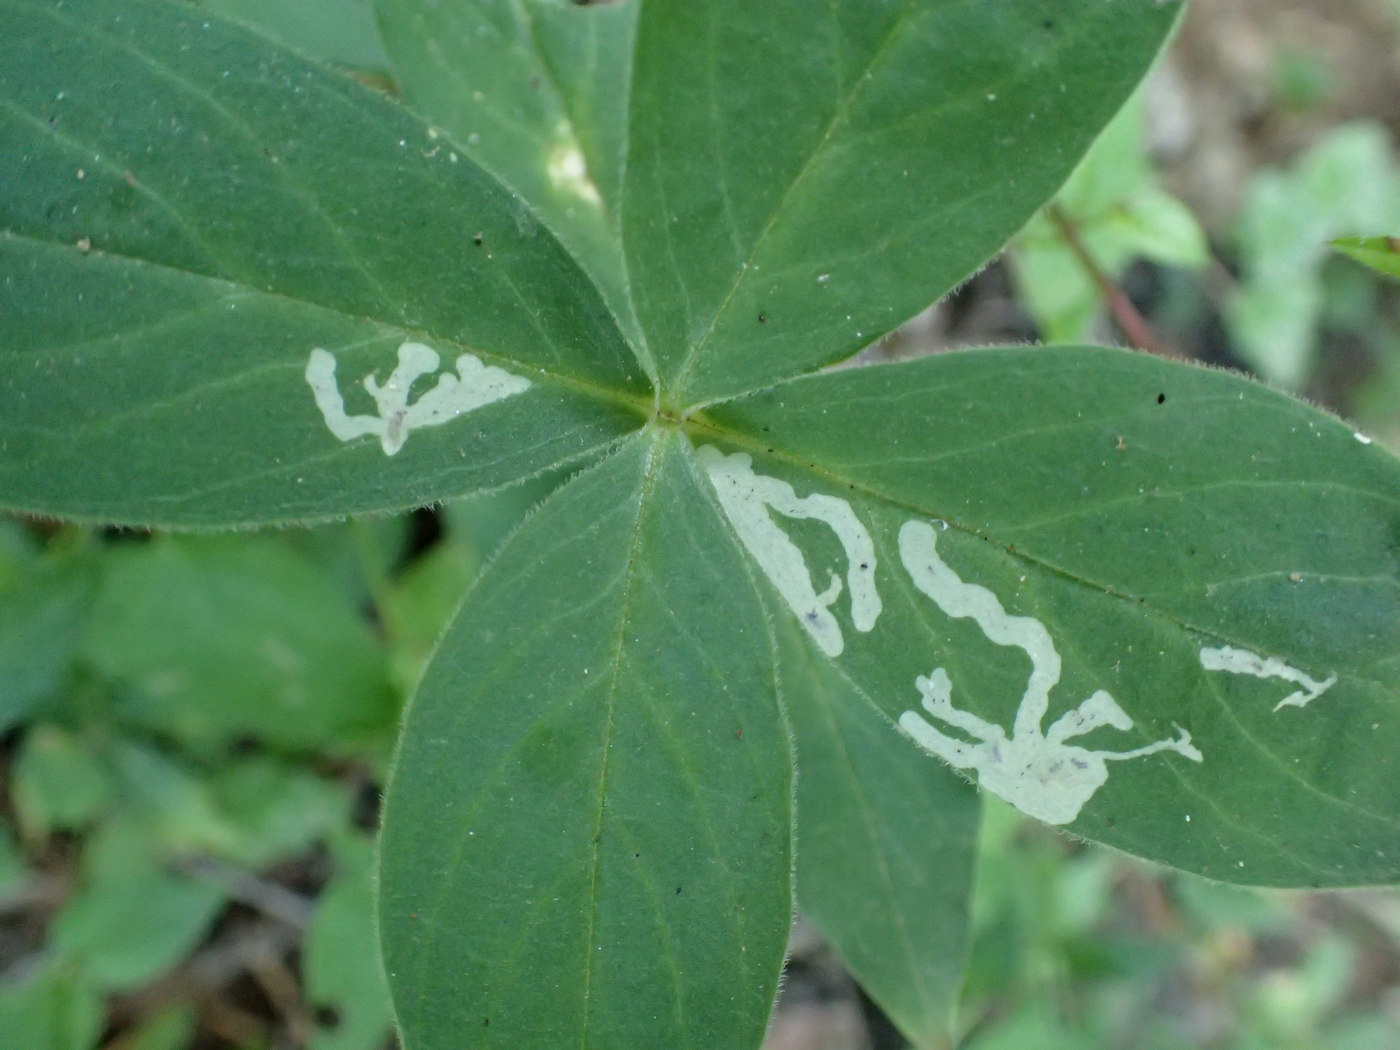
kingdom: Animalia
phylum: Arthropoda
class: Insecta
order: Diptera
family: Agromyzidae
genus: Amauromyza
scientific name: Amauromyza flavifrons
